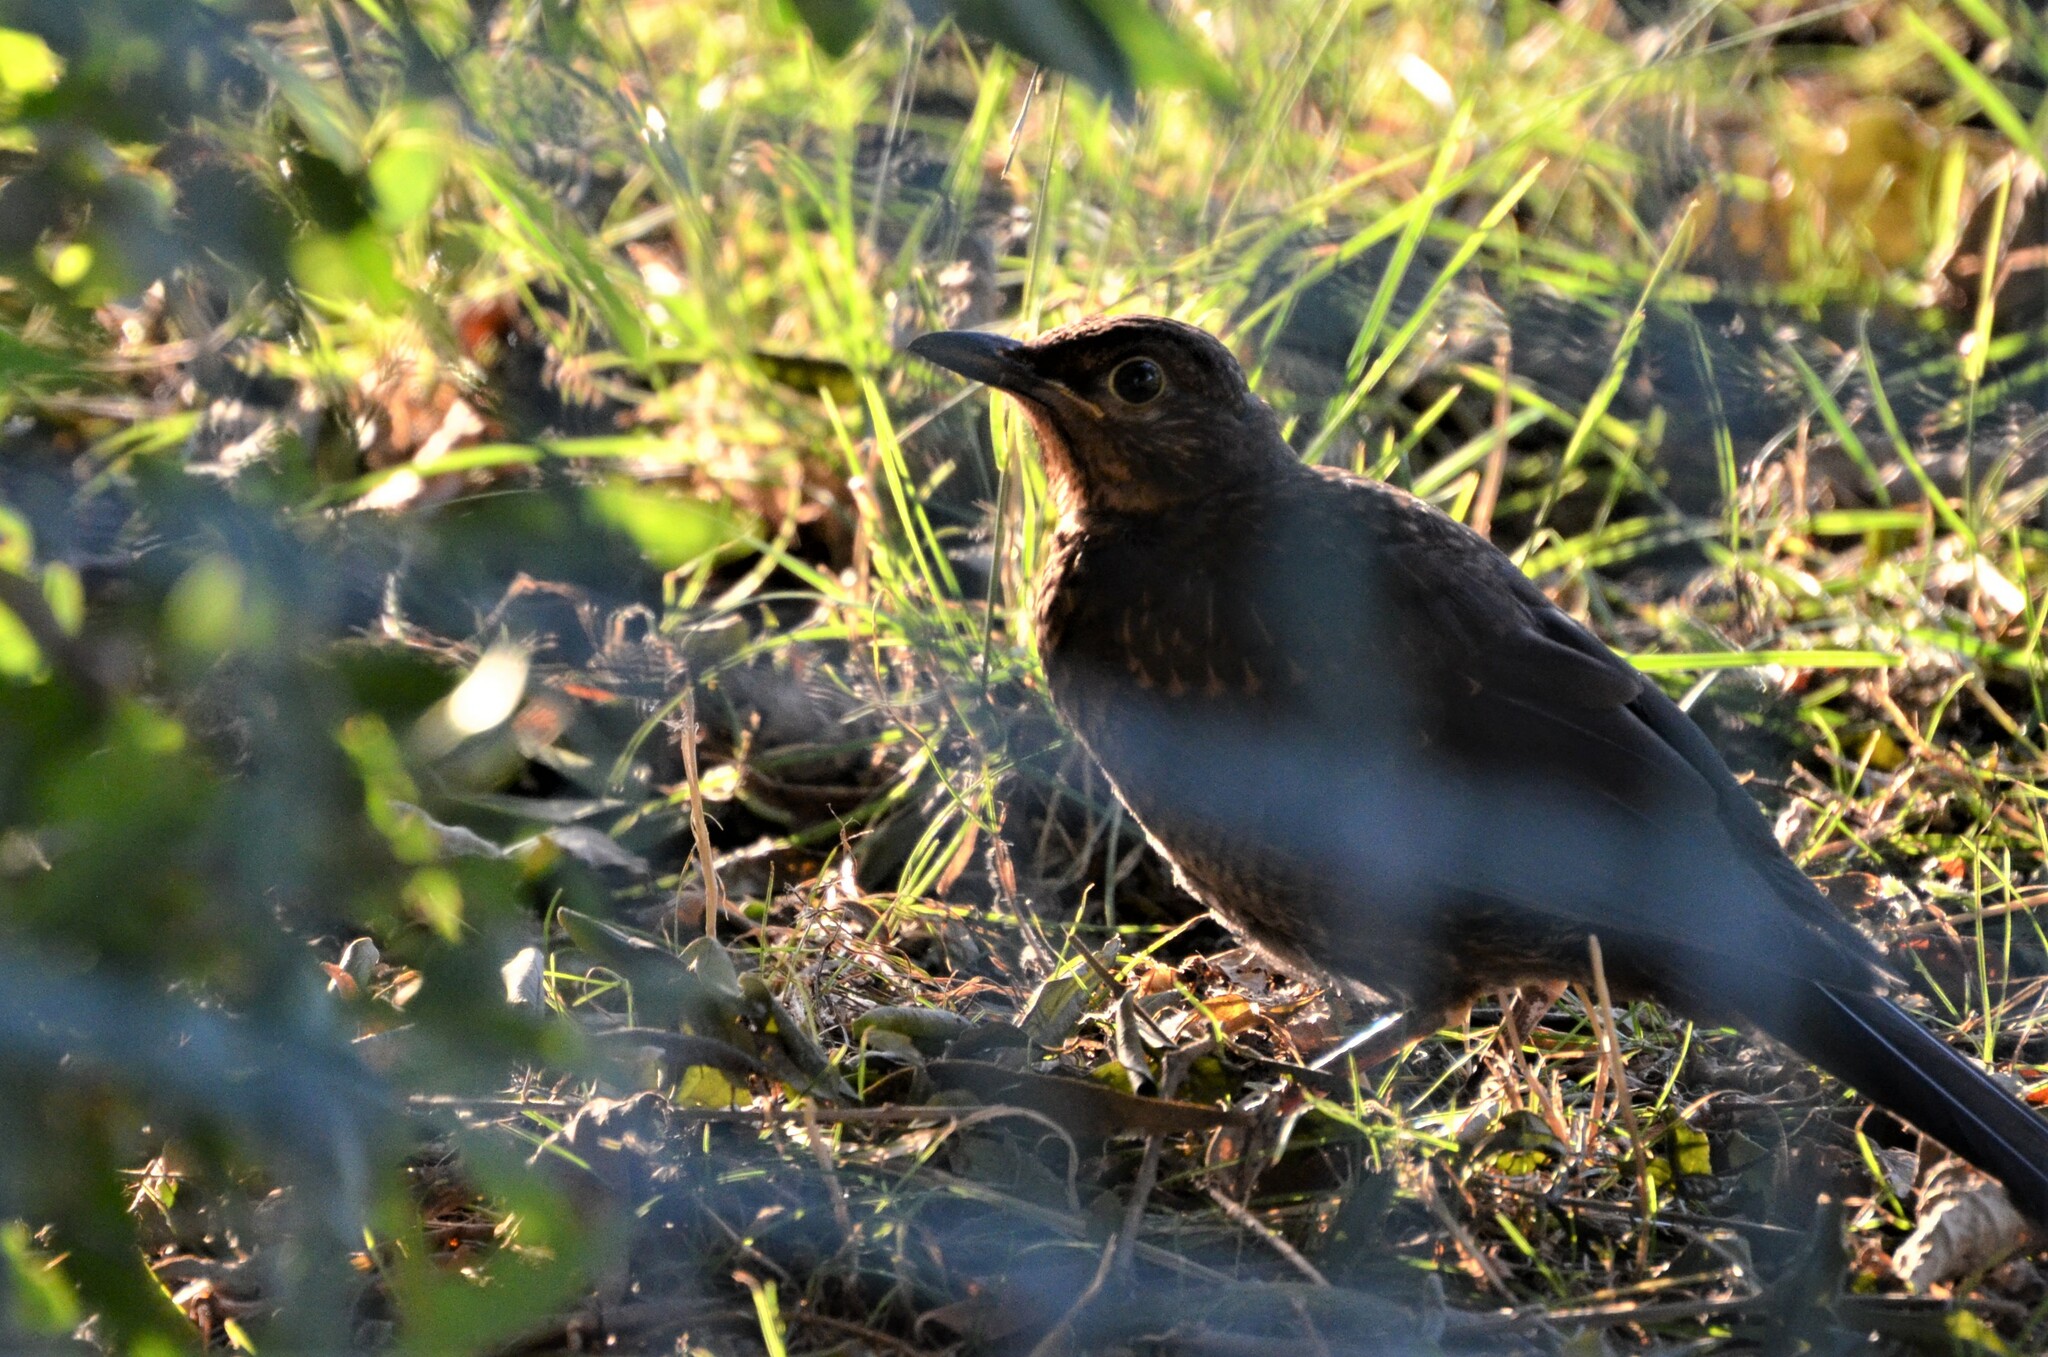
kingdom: Animalia
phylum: Chordata
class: Aves
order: Passeriformes
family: Turdidae
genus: Turdus
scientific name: Turdus merula
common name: Common blackbird
